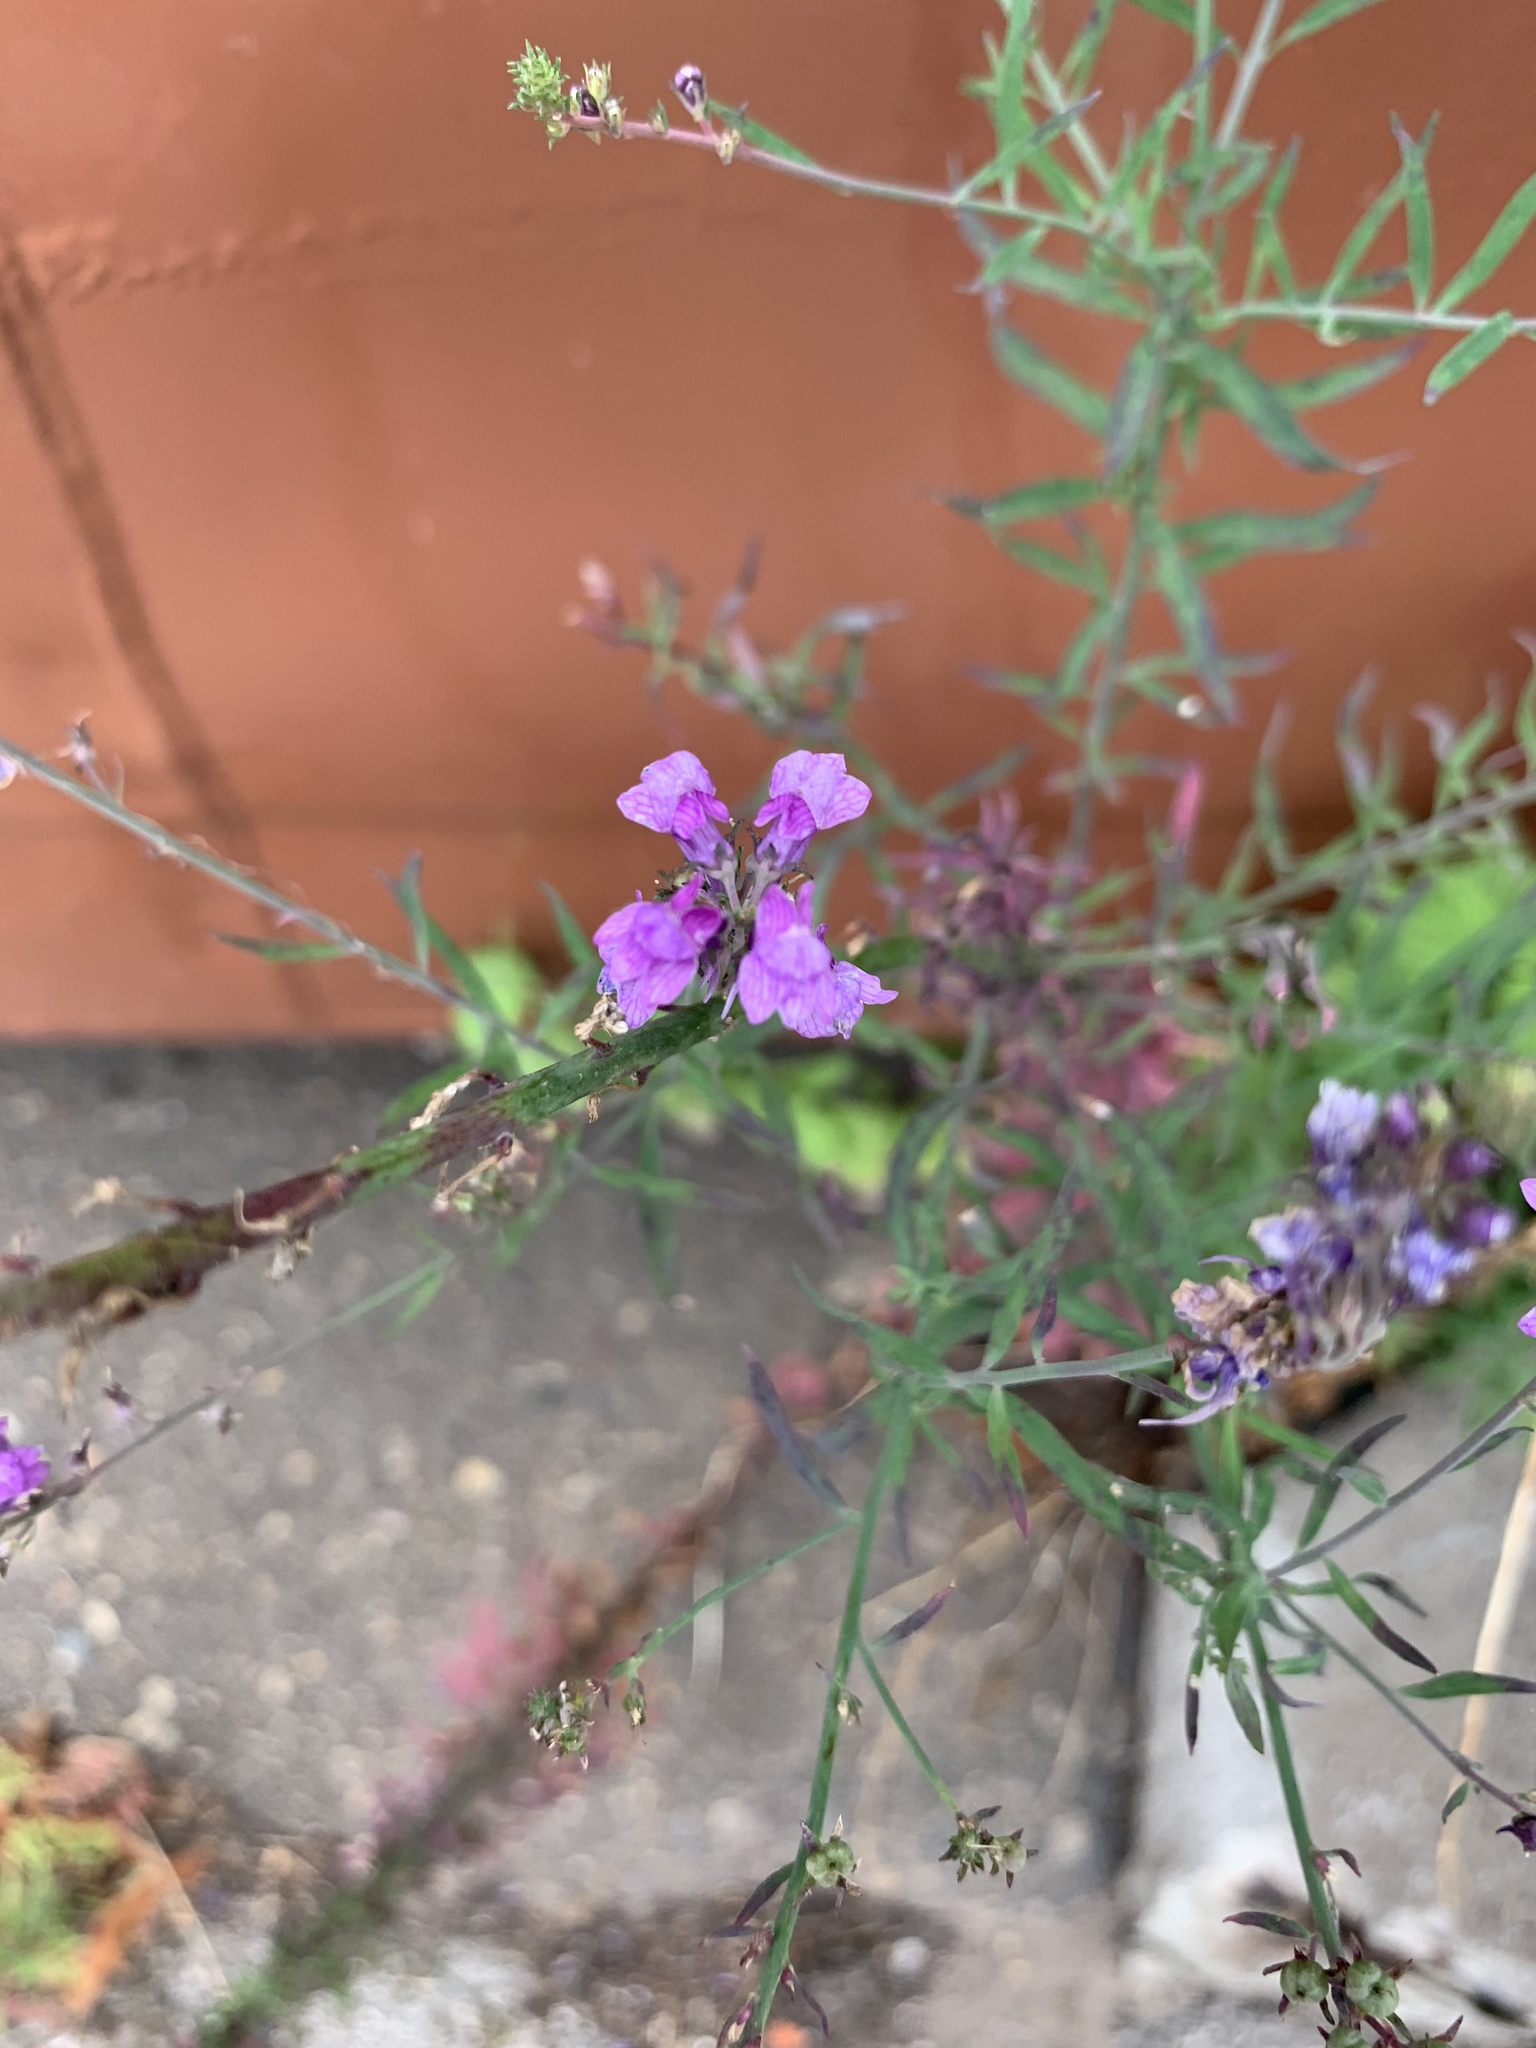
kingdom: Plantae
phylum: Tracheophyta
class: Magnoliopsida
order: Lamiales
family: Plantaginaceae
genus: Linaria
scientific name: Linaria purpurea
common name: Purple toadflax
